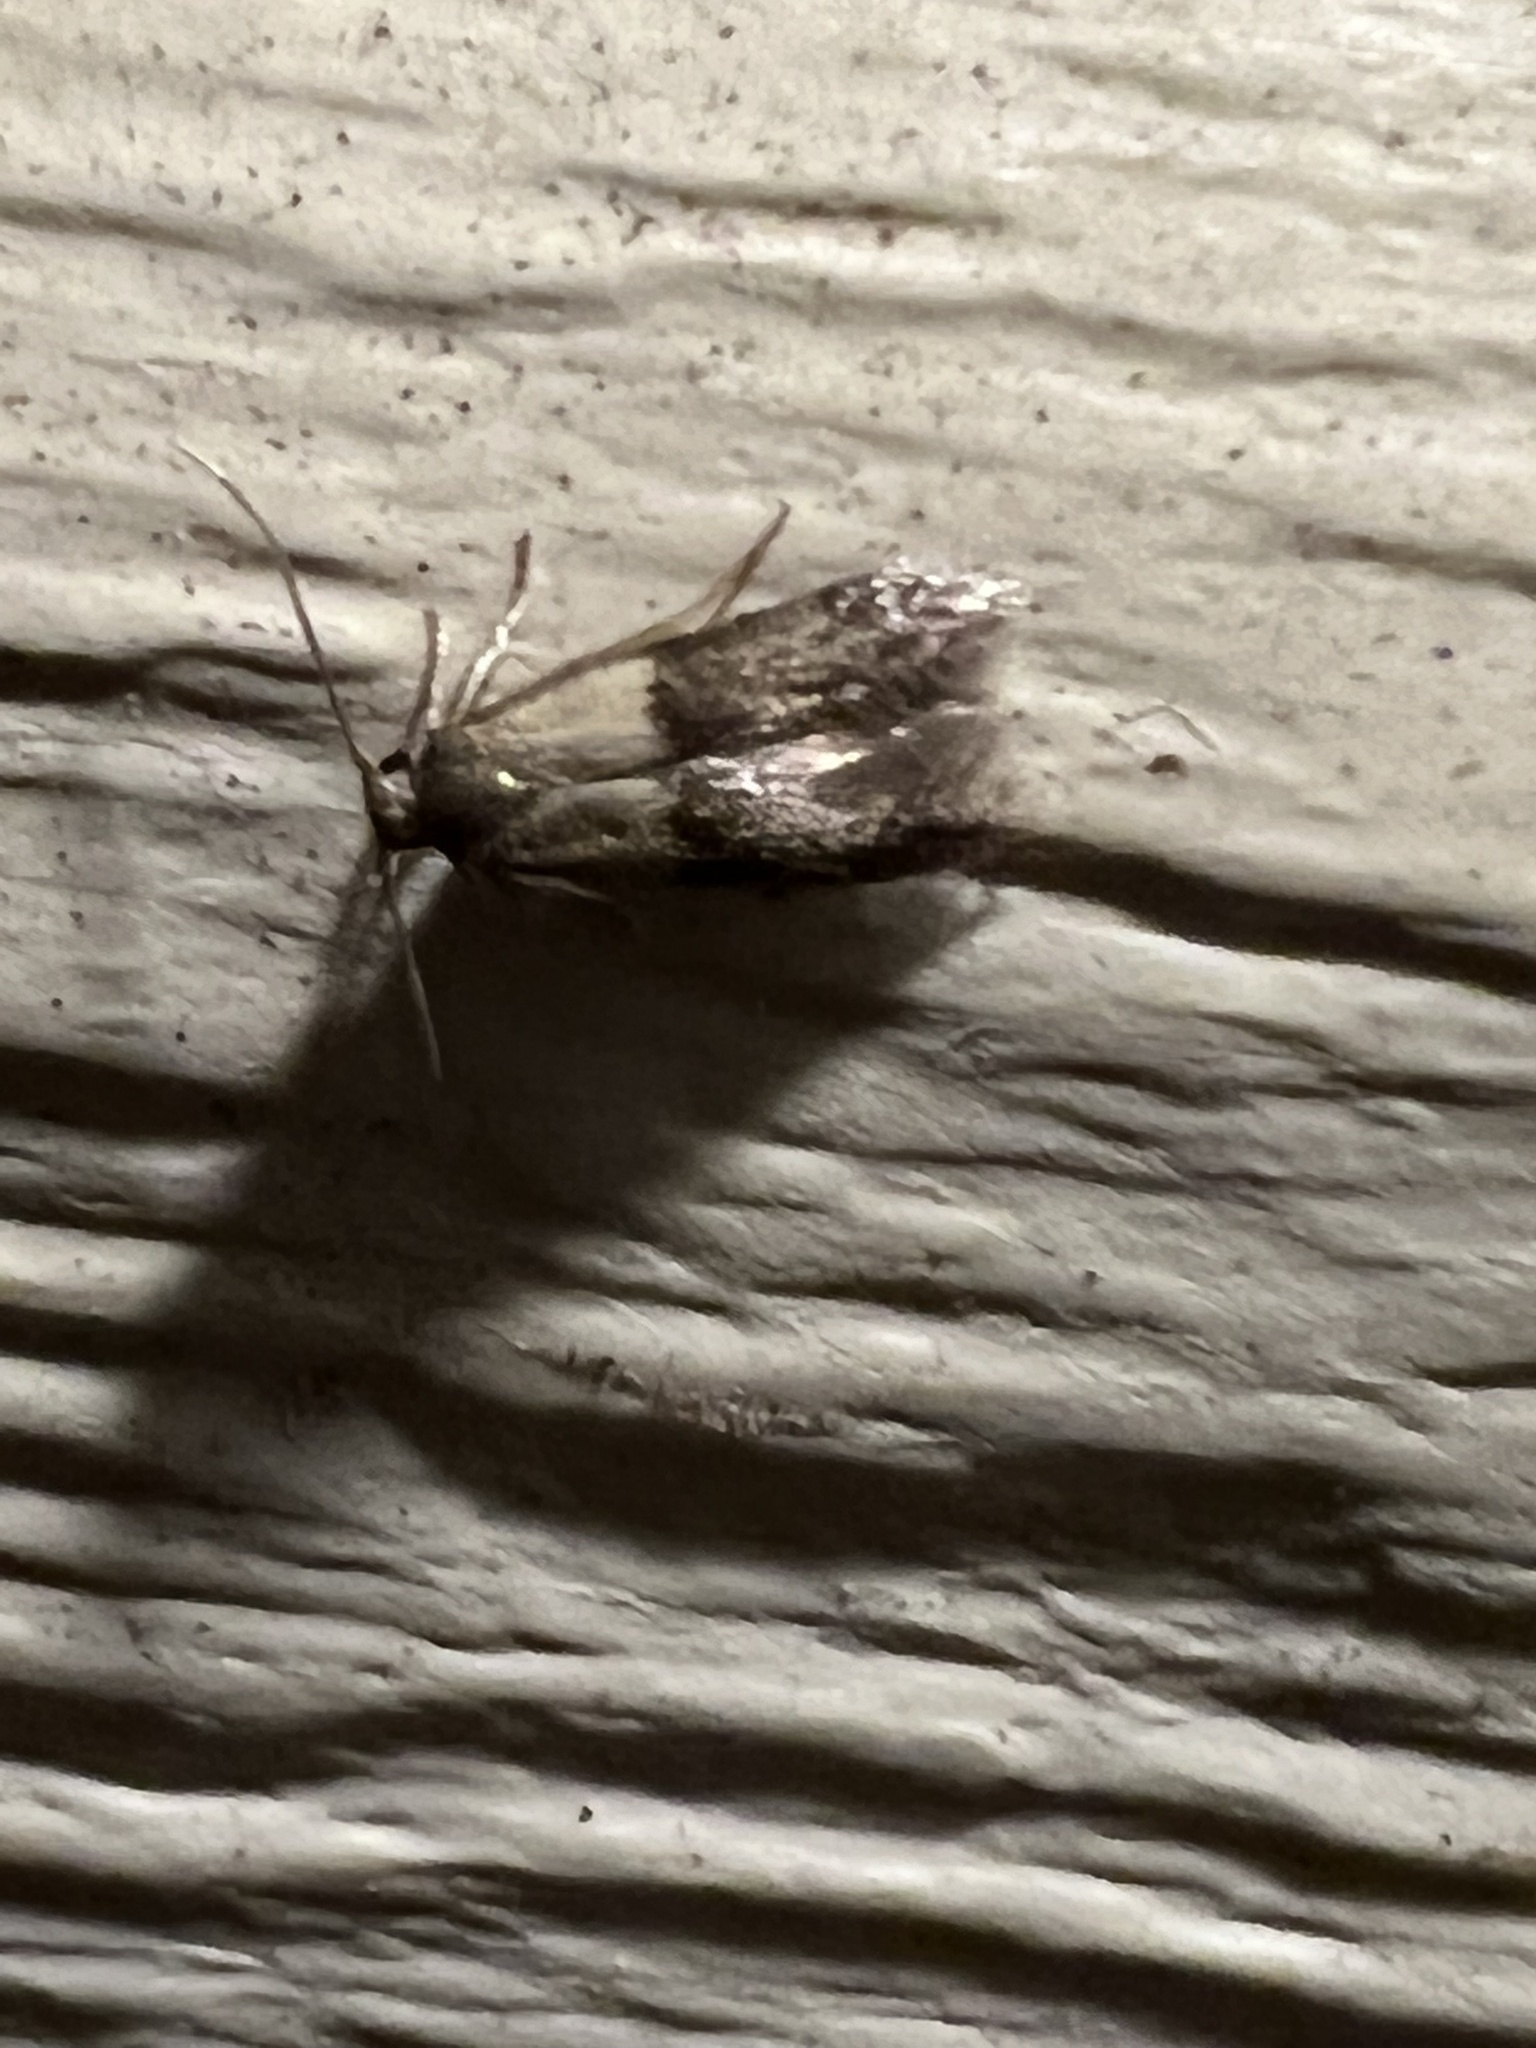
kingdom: Animalia
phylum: Arthropoda
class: Insecta
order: Lepidoptera
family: Blastobasidae
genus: Pigritia
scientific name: Pigritia laticapitella
